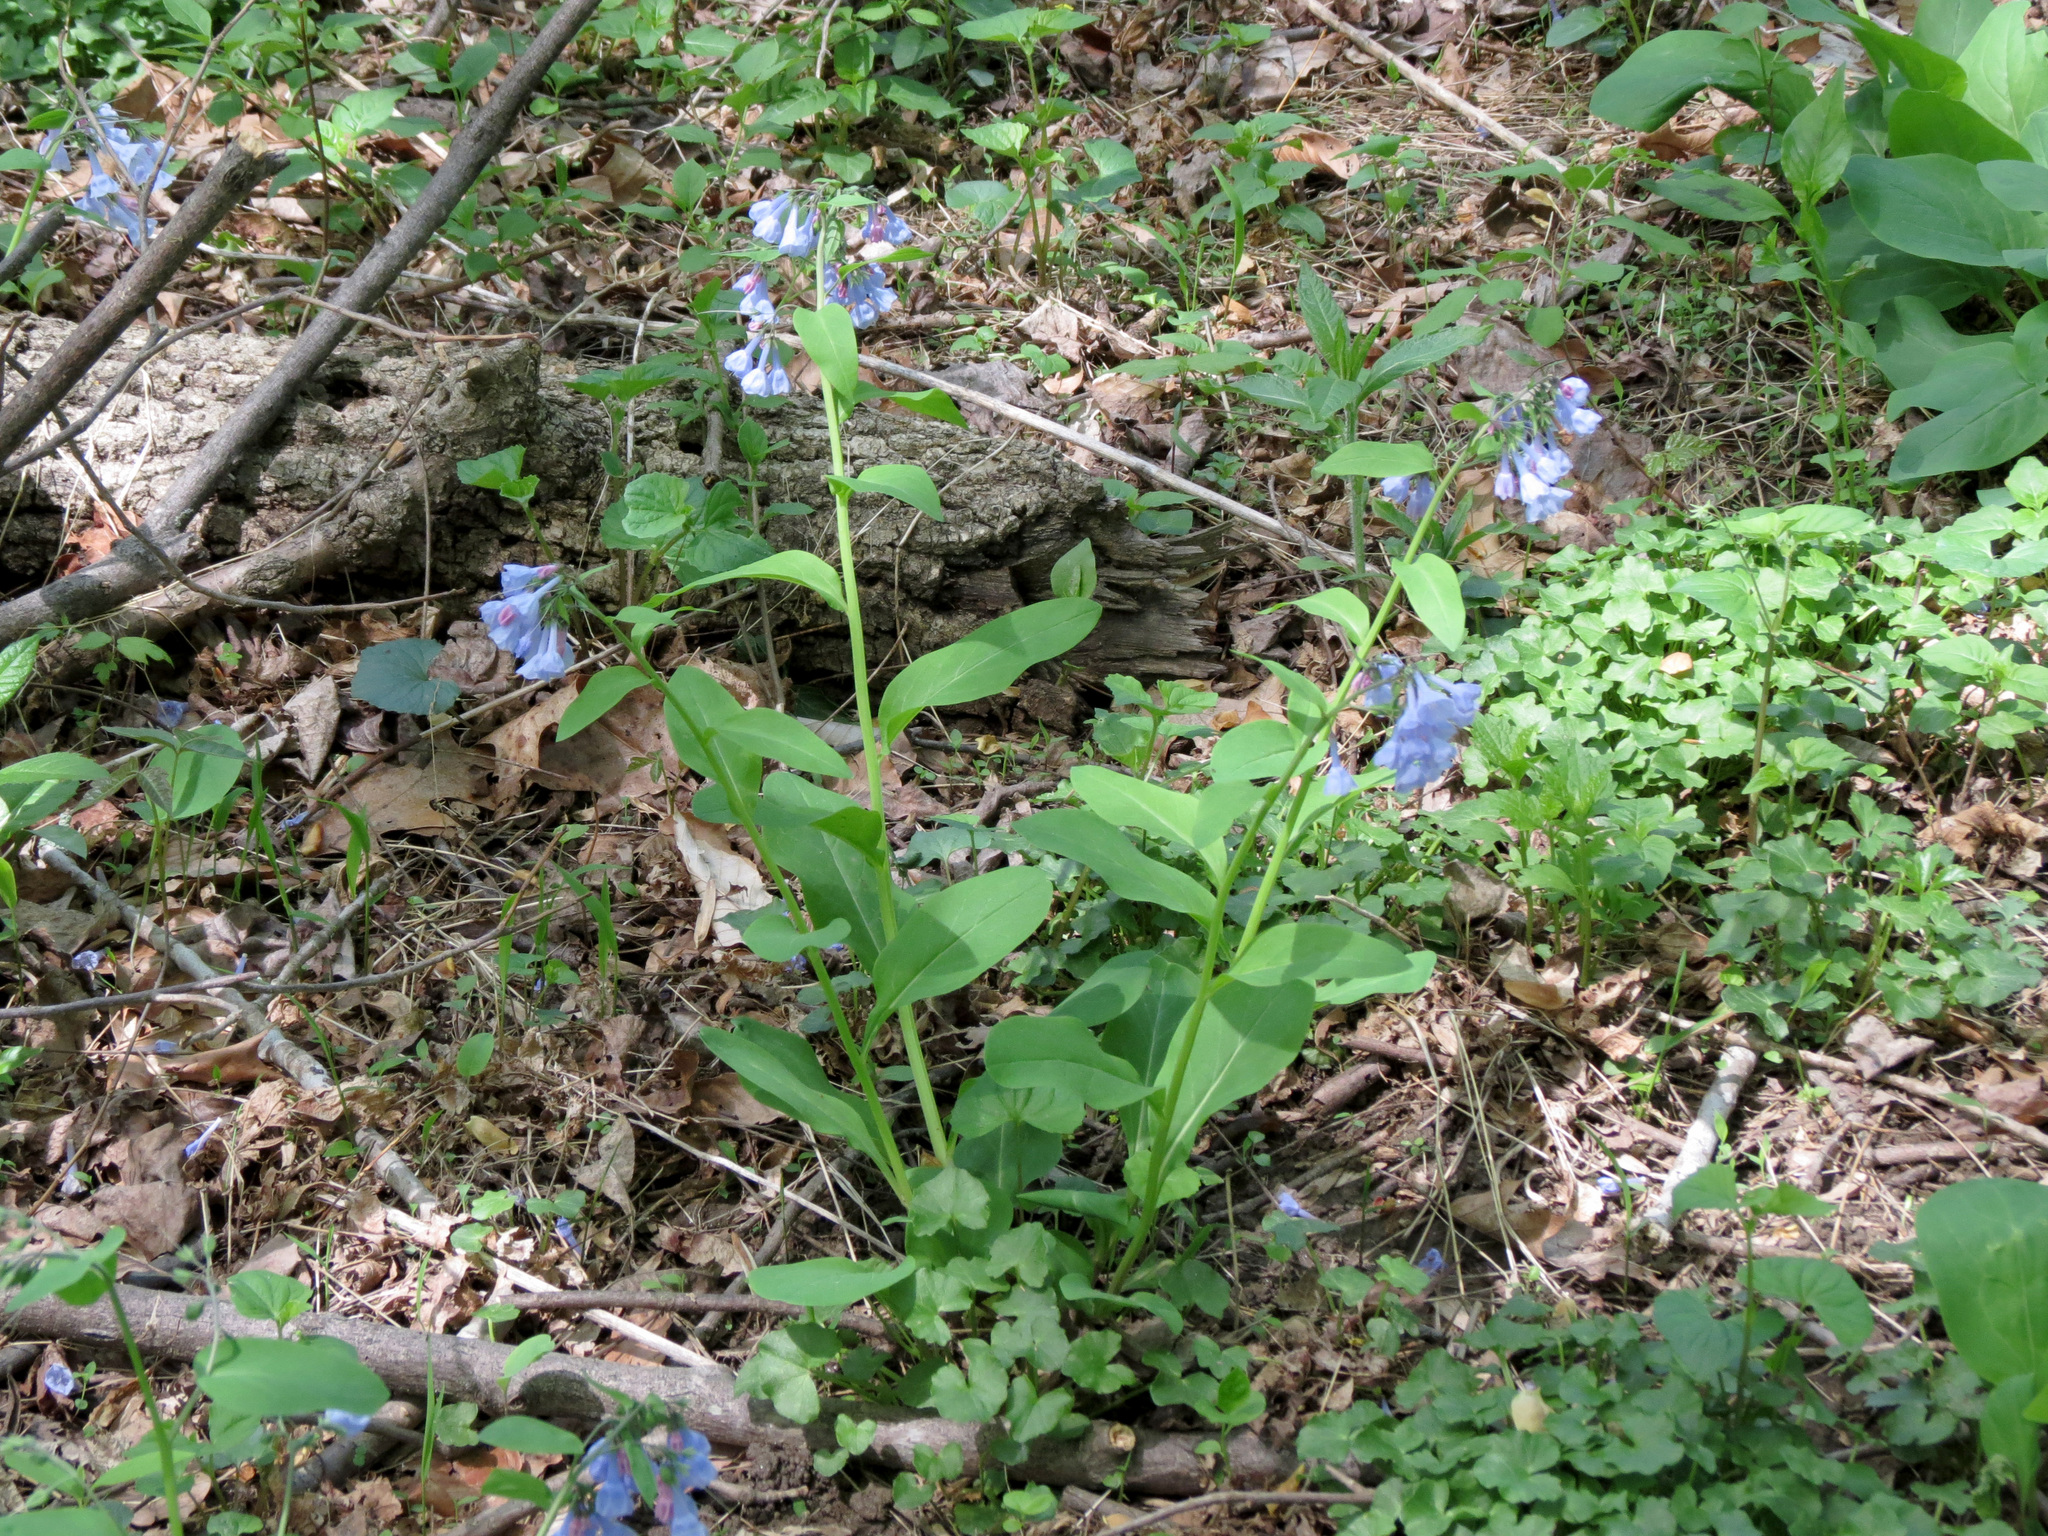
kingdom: Plantae
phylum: Tracheophyta
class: Magnoliopsida
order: Boraginales
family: Boraginaceae
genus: Mertensia
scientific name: Mertensia virginica
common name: Virginia bluebells
